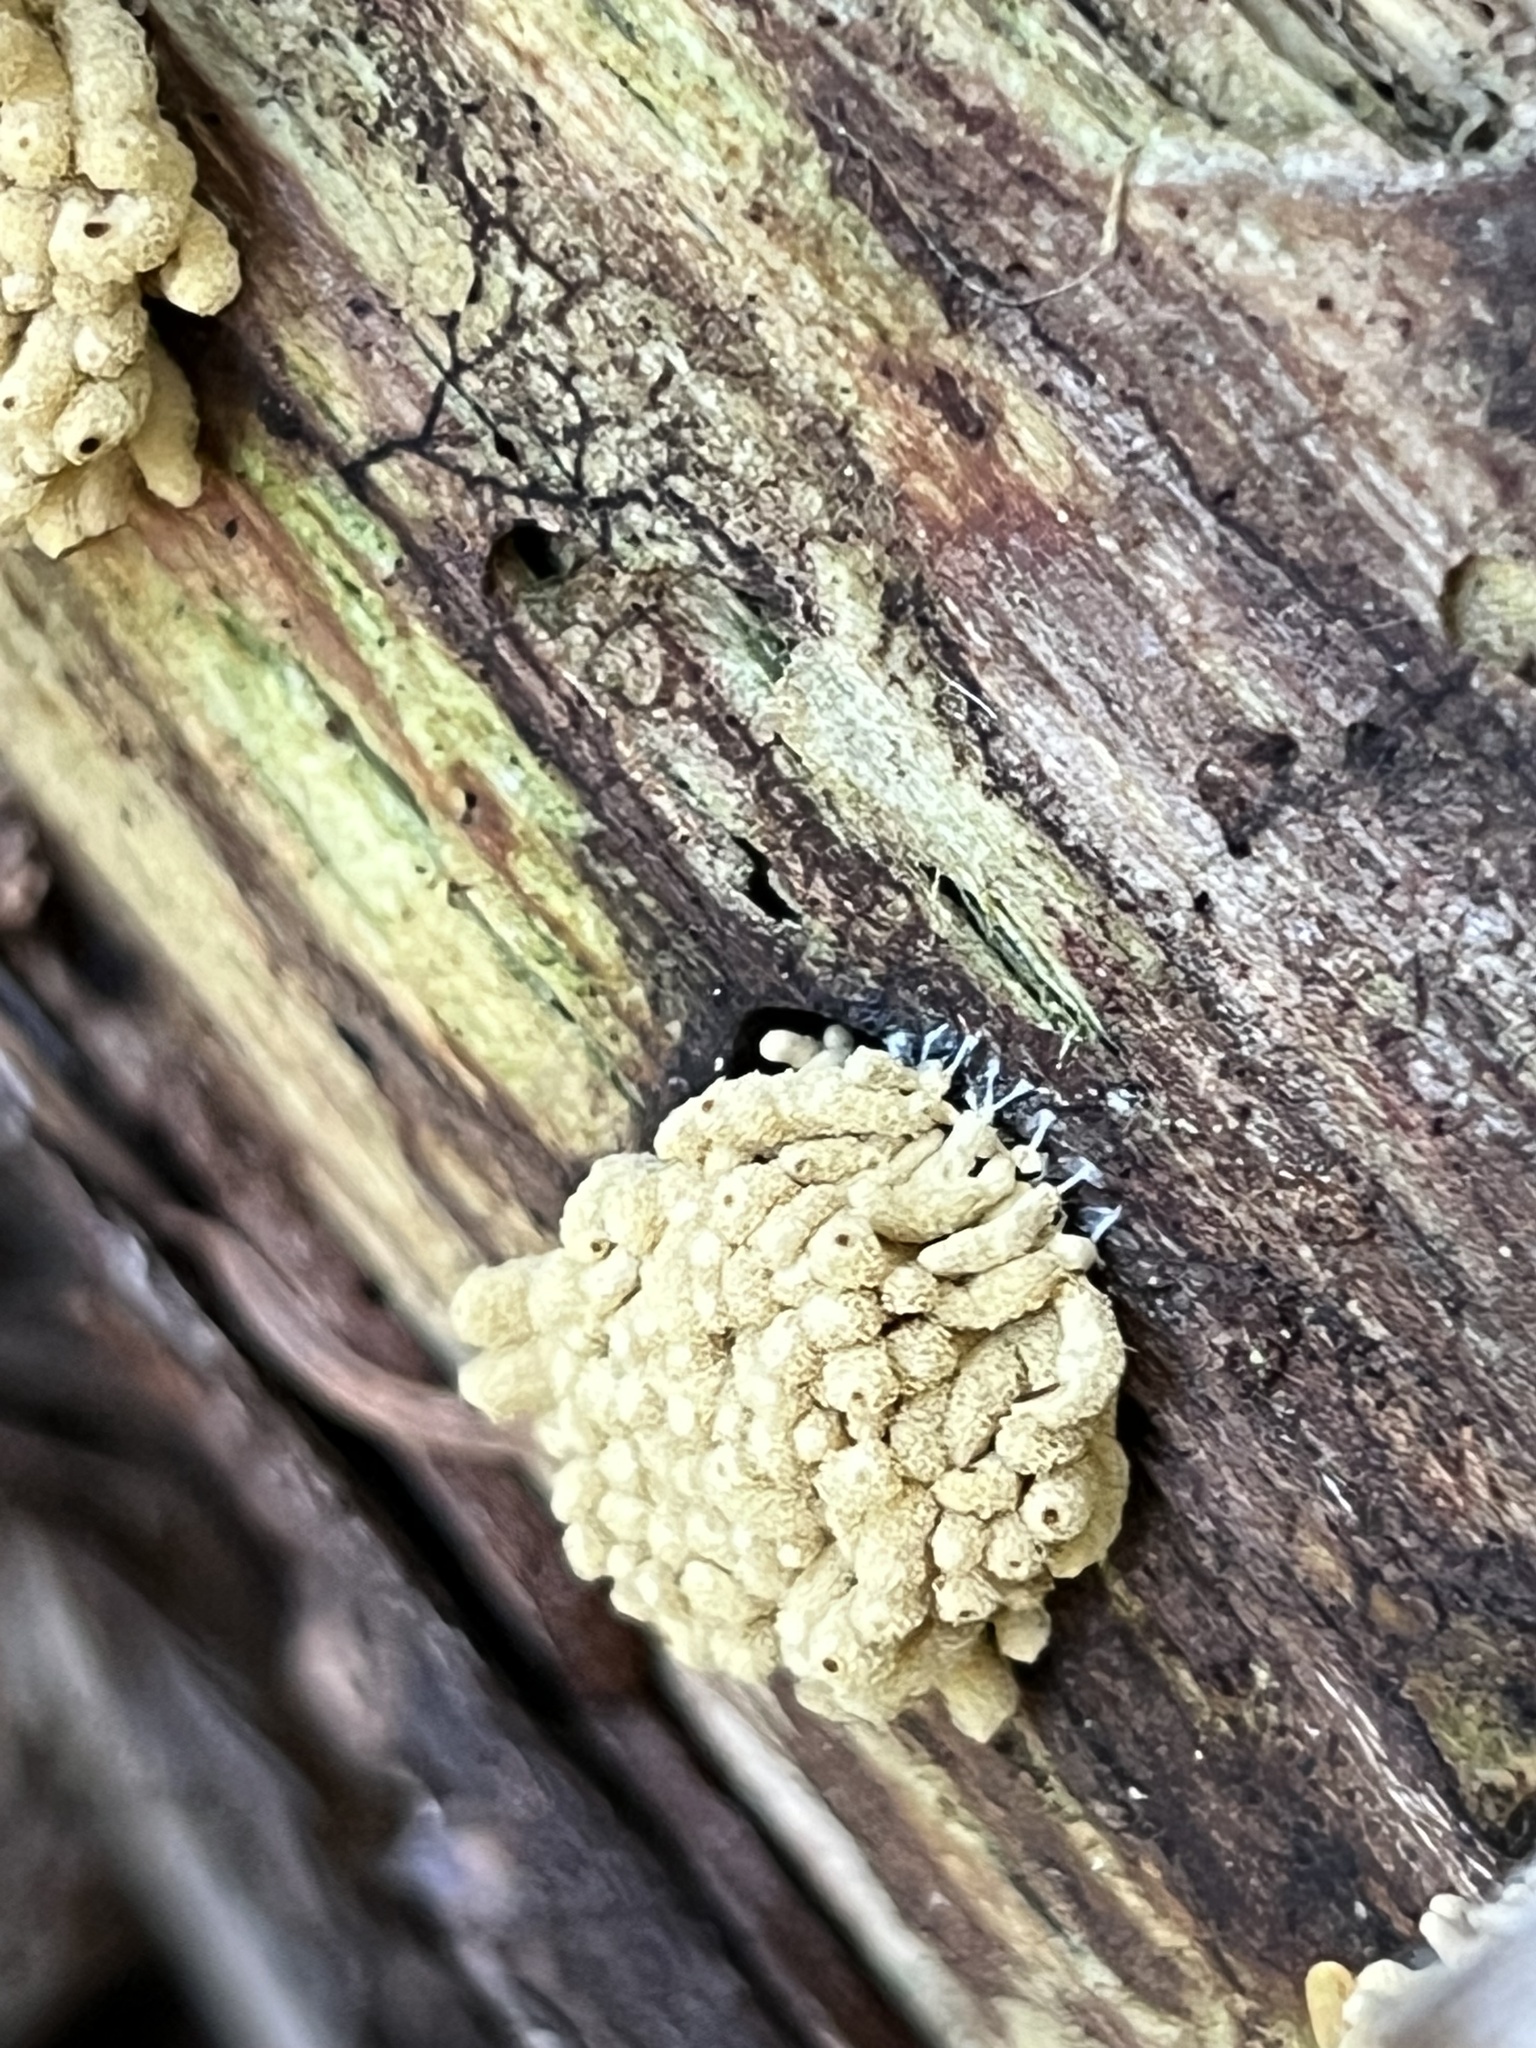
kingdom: Protozoa
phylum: Mycetozoa
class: Myxomycetes
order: Trichiales
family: Arcyriaceae
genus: Arcyria
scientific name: Arcyria obvelata
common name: Yellow carnival candy slime
